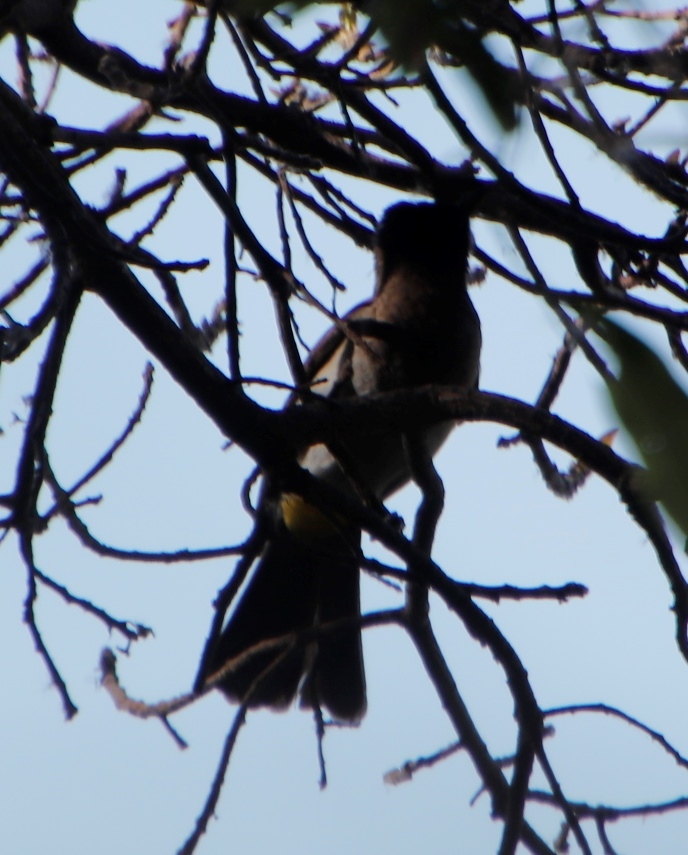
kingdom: Animalia
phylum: Chordata
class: Aves
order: Passeriformes
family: Pycnonotidae
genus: Pycnonotus
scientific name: Pycnonotus barbatus
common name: Common bulbul
